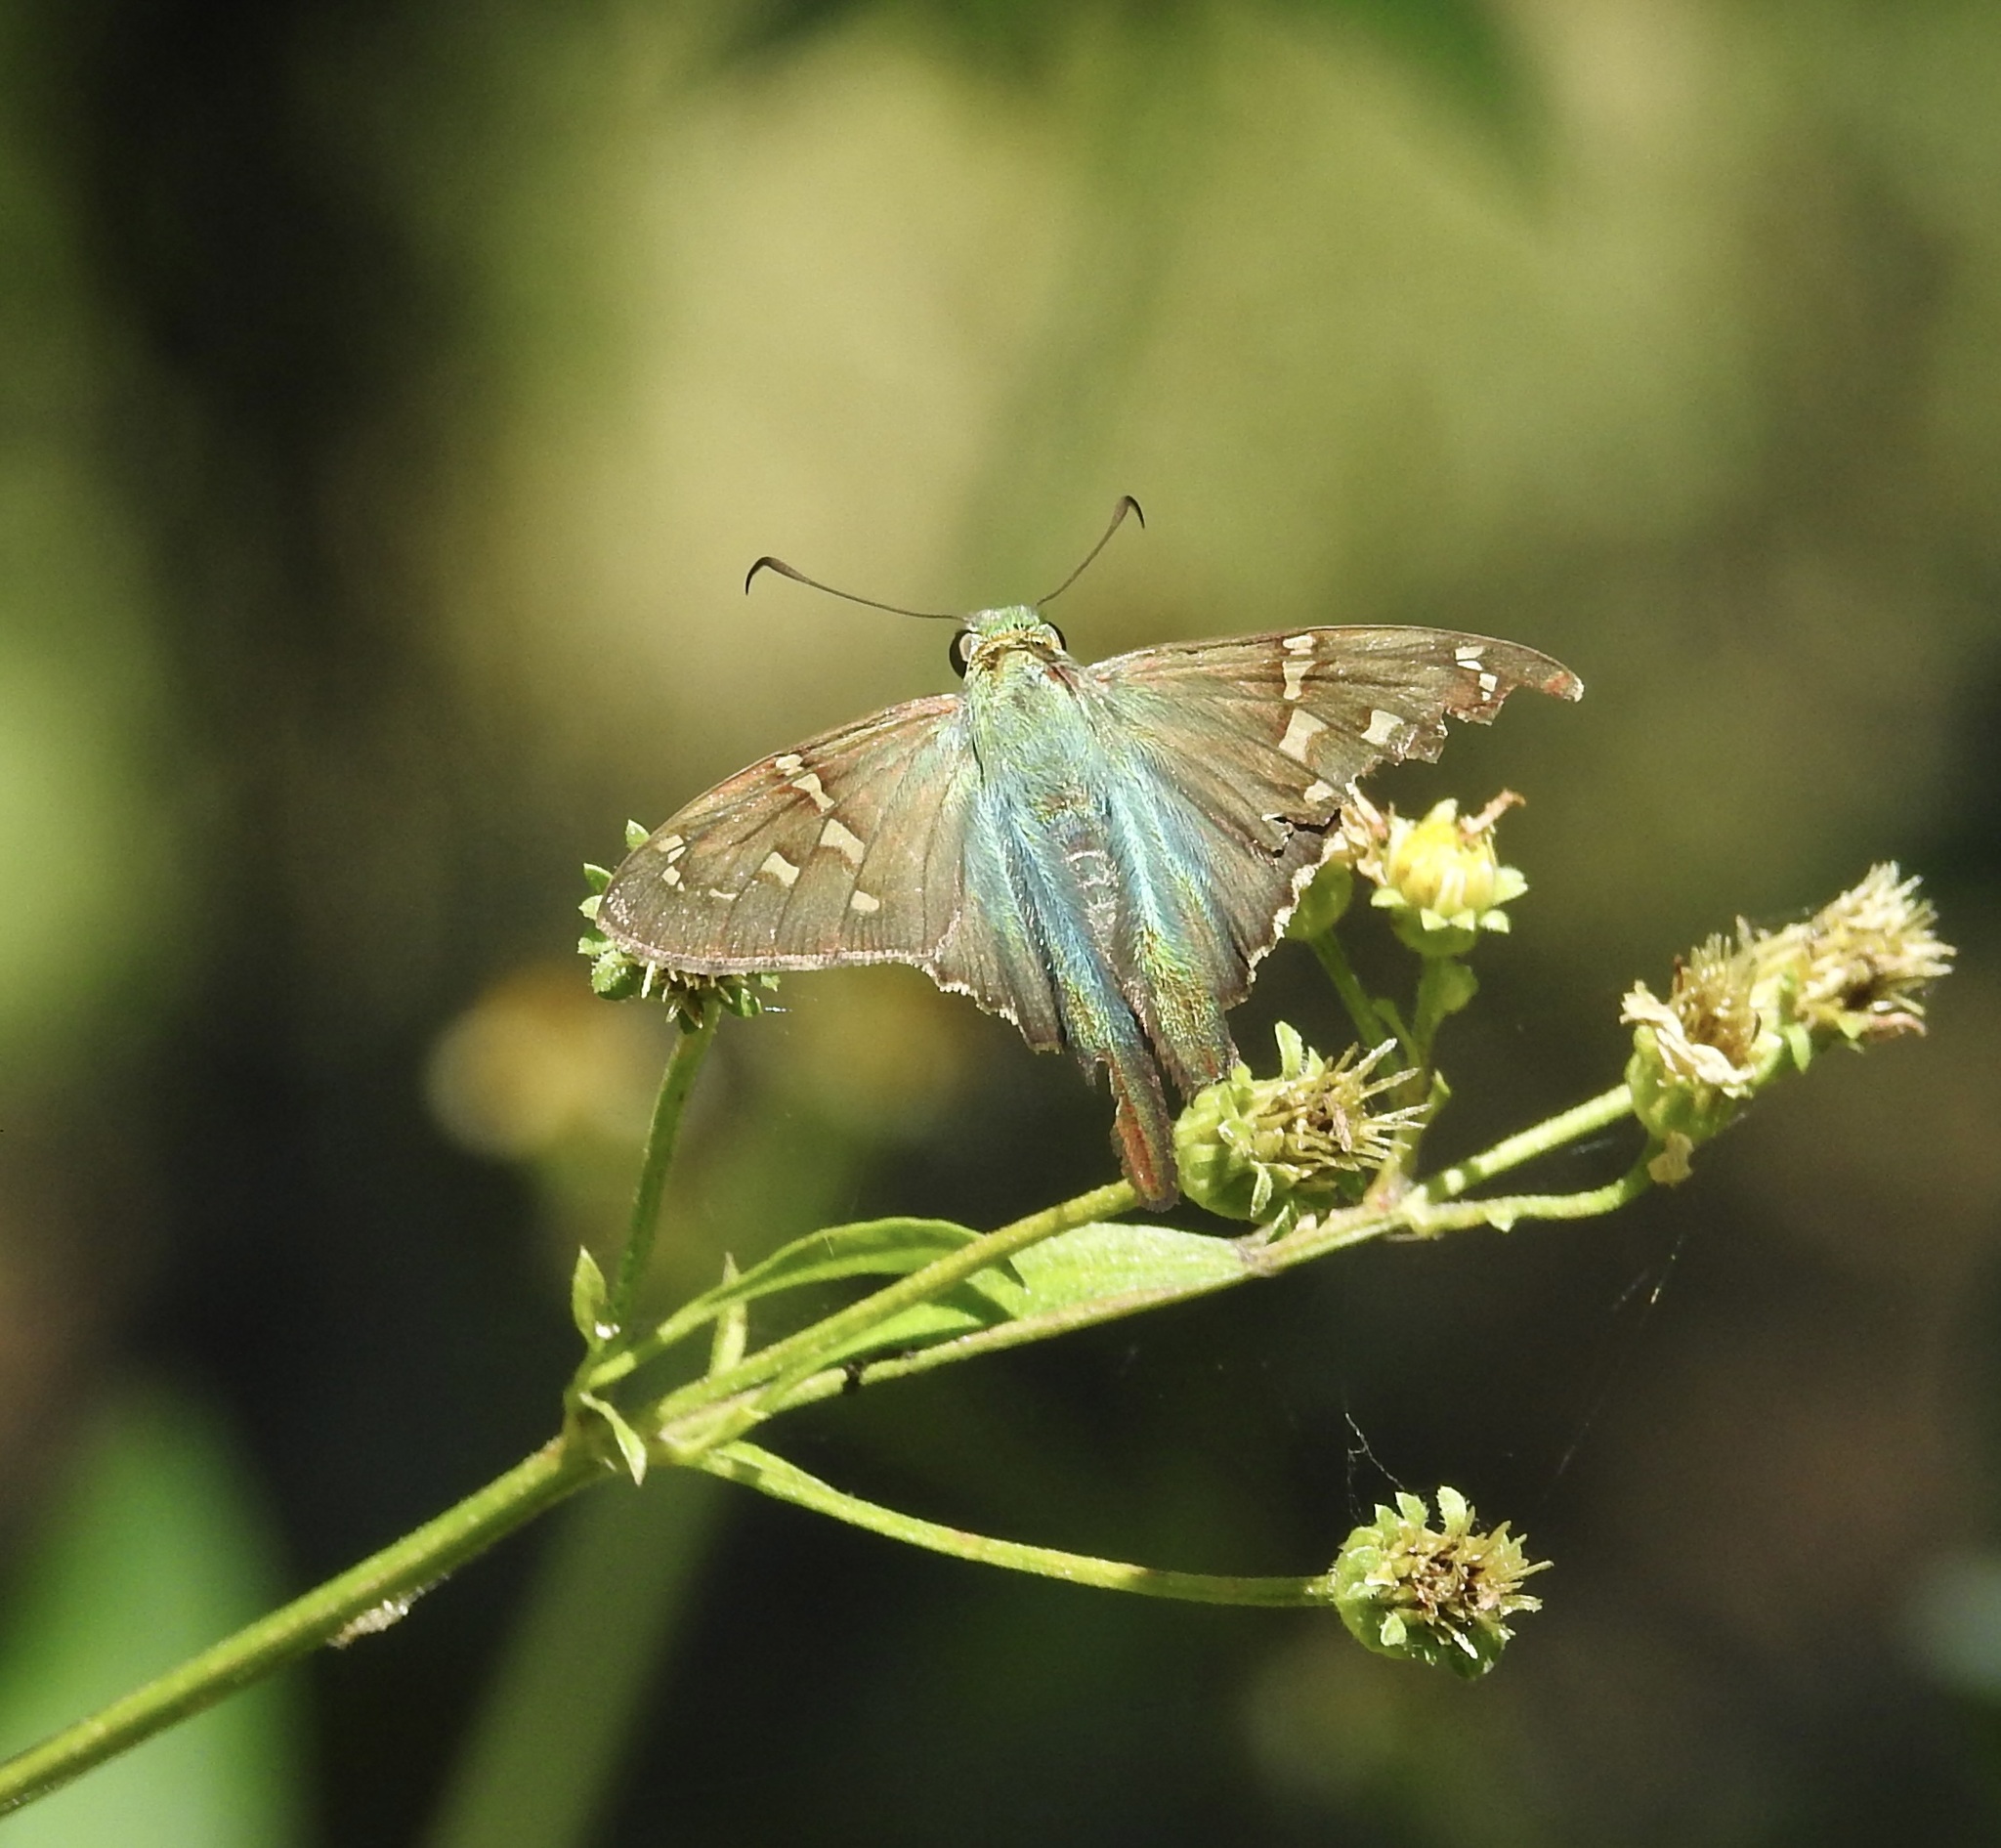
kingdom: Animalia
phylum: Arthropoda
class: Insecta
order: Lepidoptera
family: Hesperiidae
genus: Urbanus
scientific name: Urbanus proteus
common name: Long-tailed skipper
